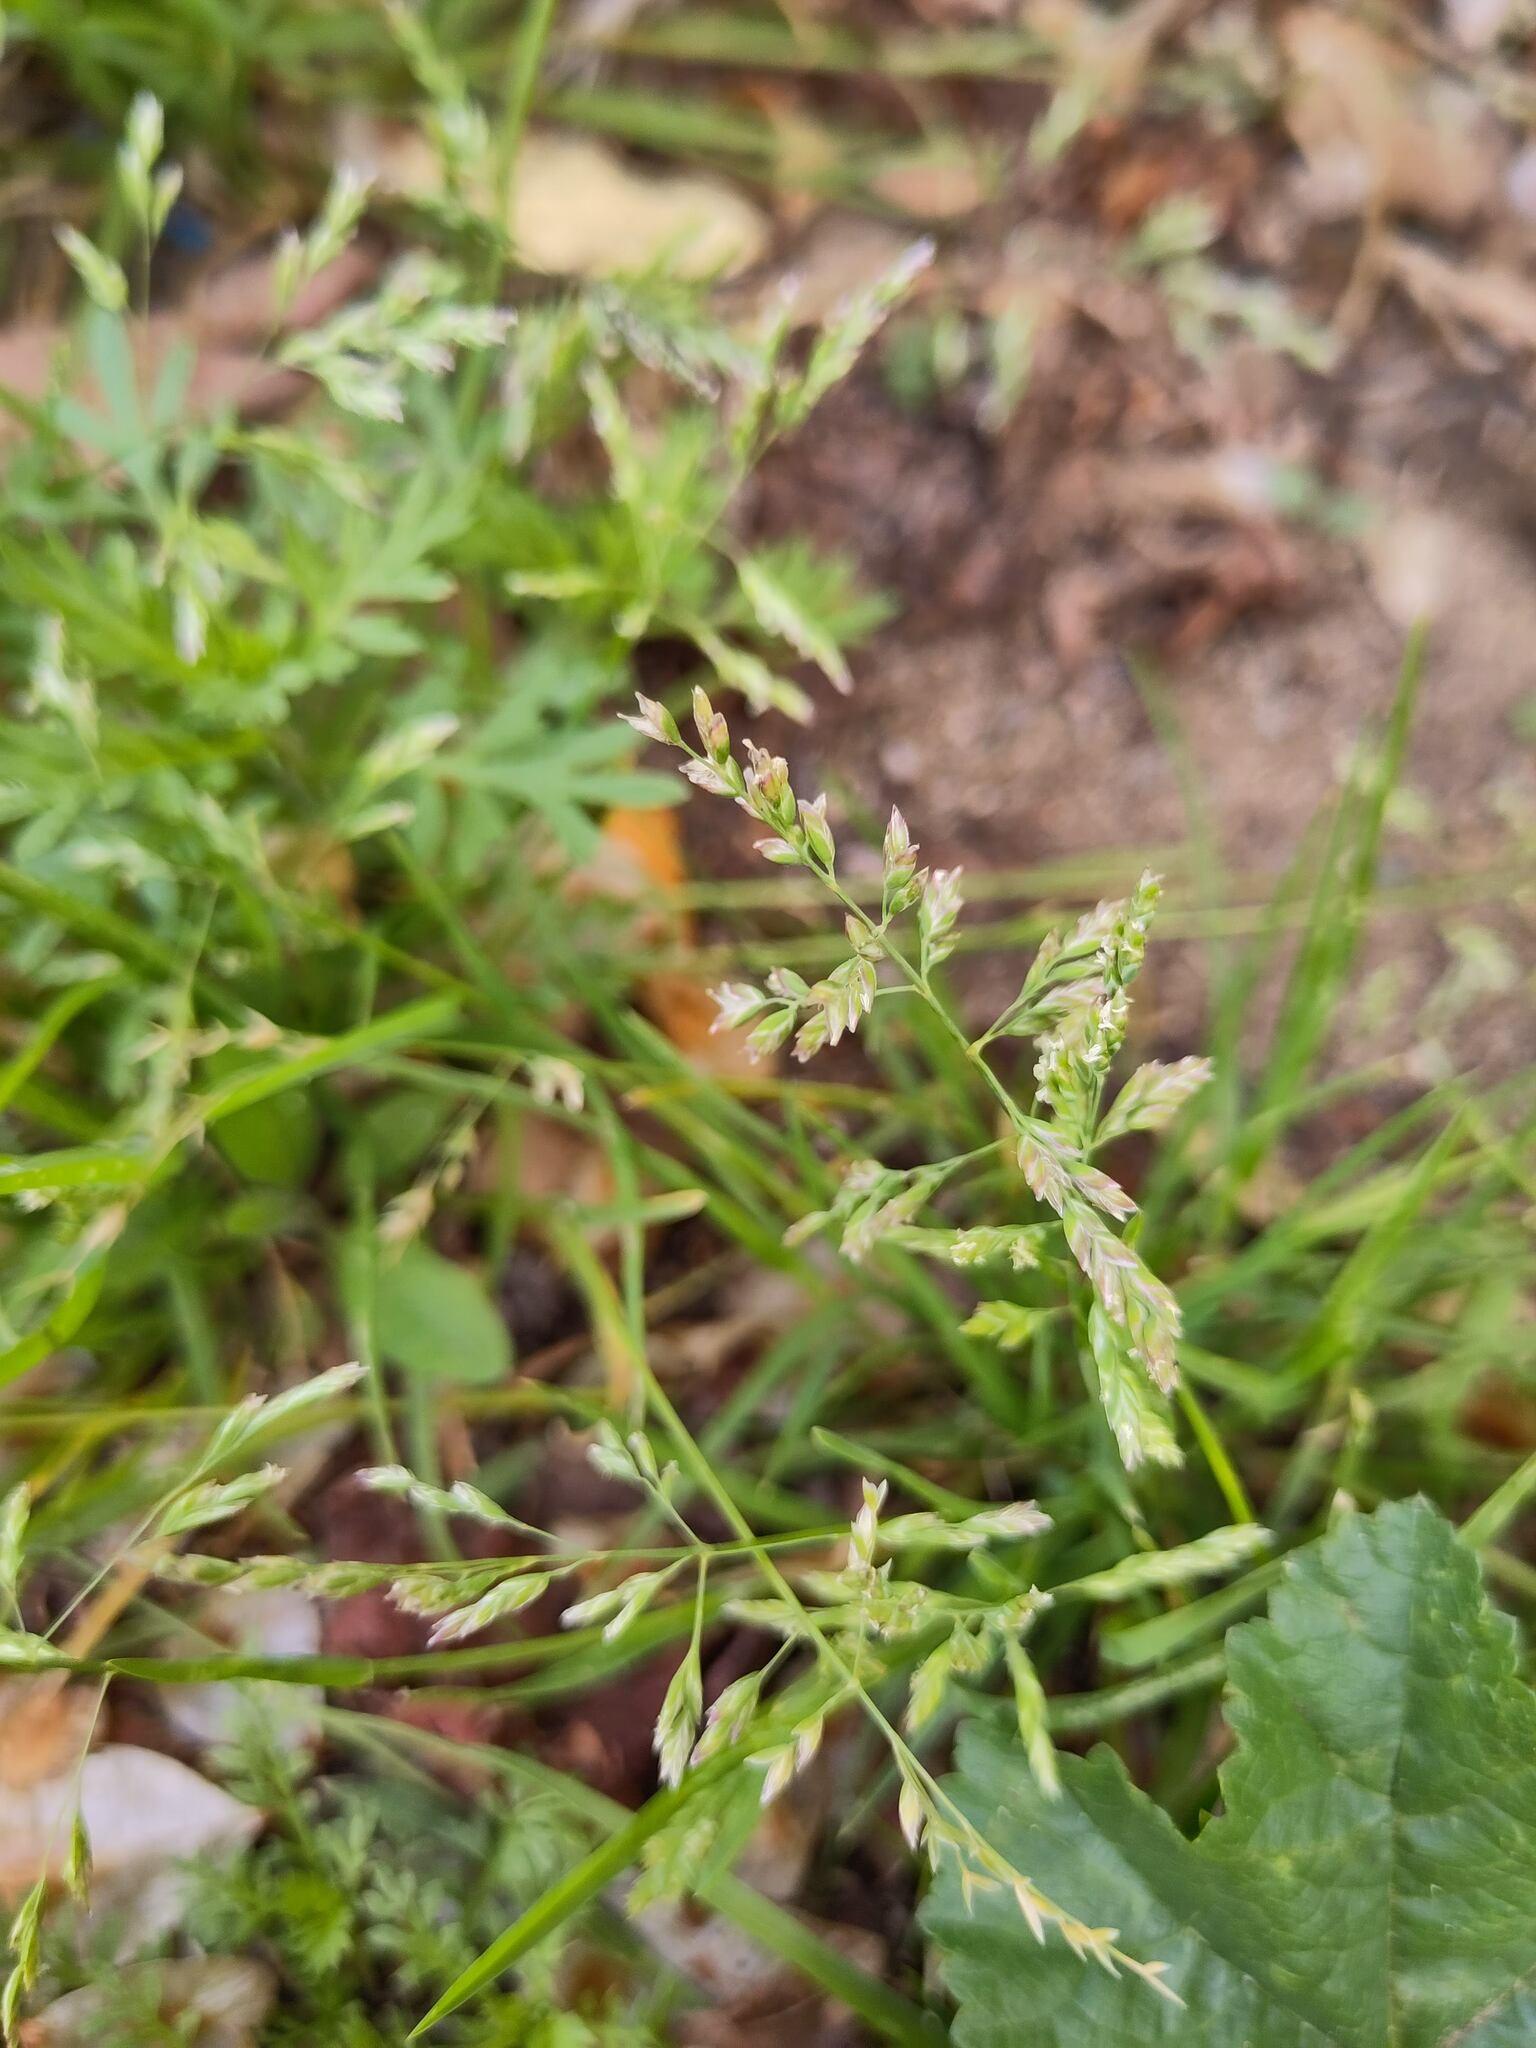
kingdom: Plantae
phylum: Tracheophyta
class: Liliopsida
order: Poales
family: Poaceae
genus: Poa
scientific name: Poa annua
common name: Annual bluegrass
